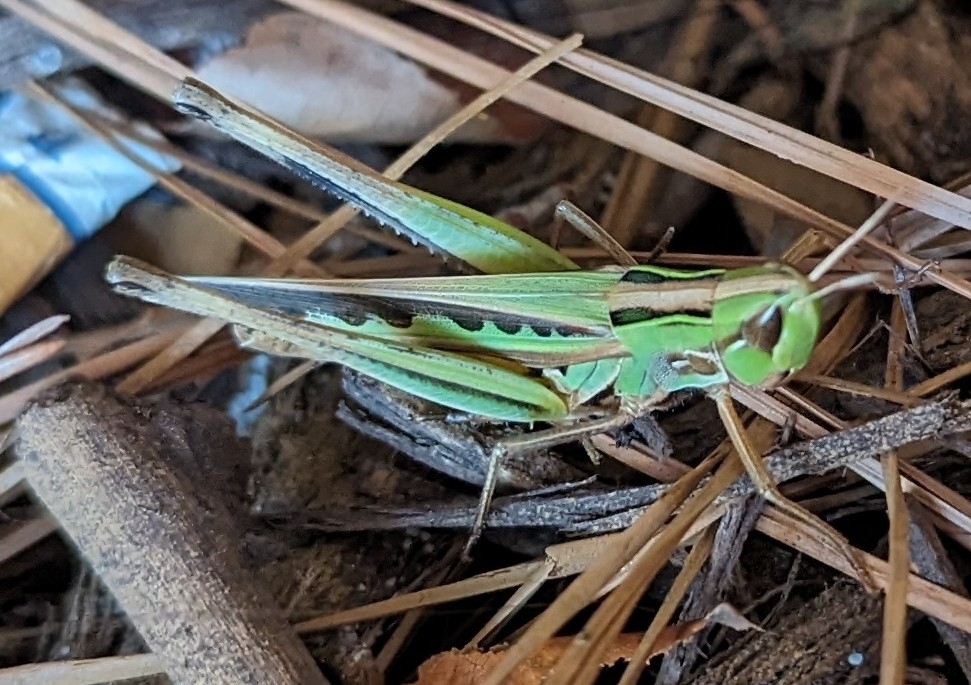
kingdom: Animalia
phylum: Arthropoda
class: Insecta
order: Orthoptera
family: Acrididae
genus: Syrbula
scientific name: Syrbula admirabilis
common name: Handsome grasshopper
